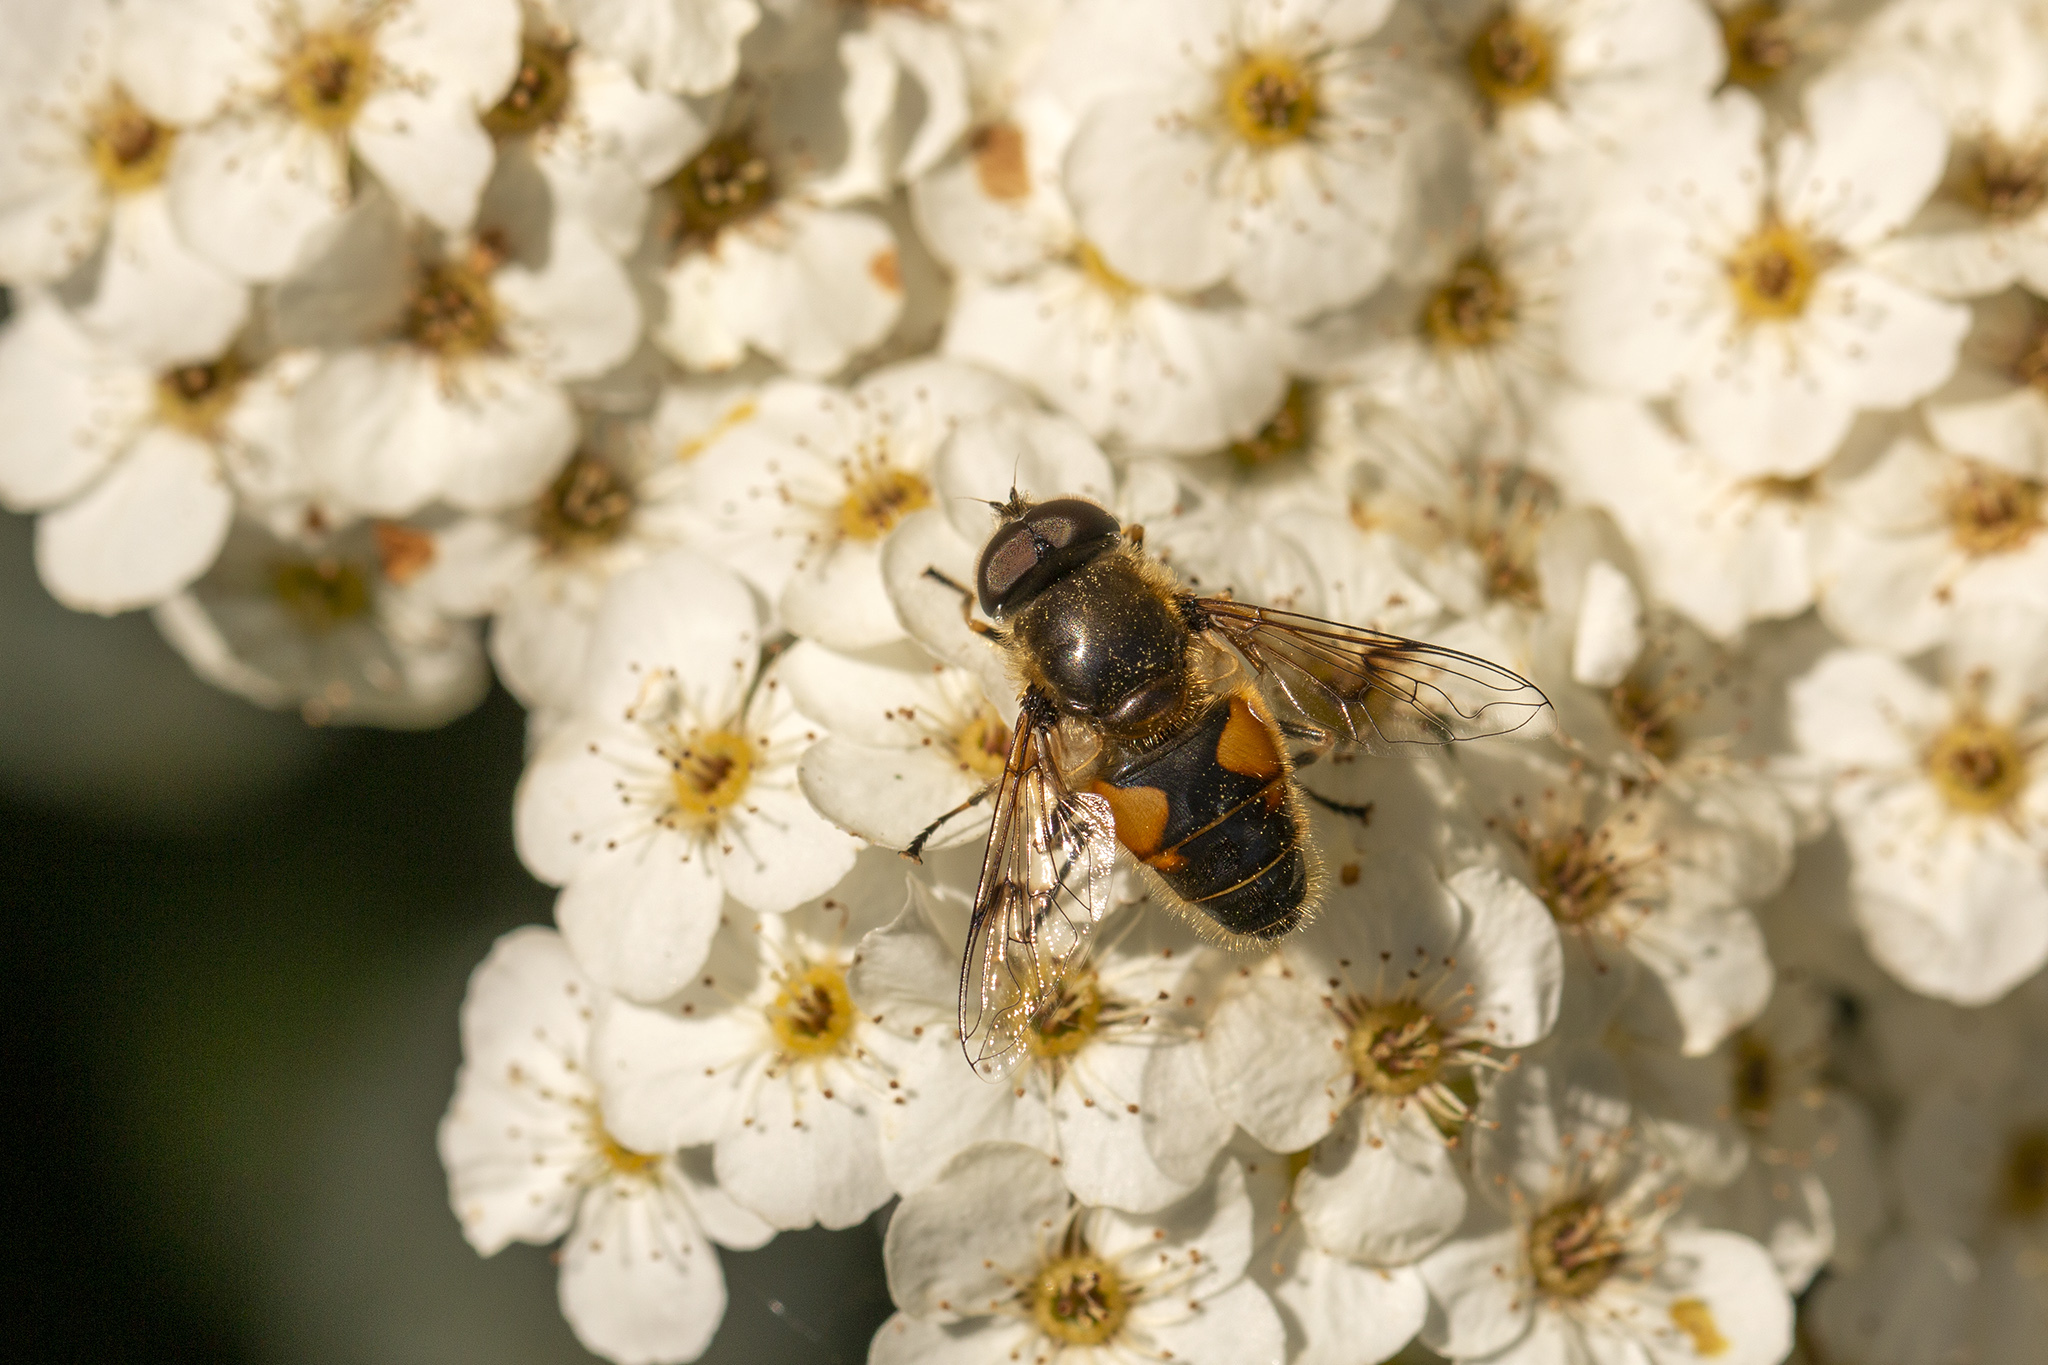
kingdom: Animalia
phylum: Arthropoda
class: Insecta
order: Diptera
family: Syrphidae
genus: Cheilosia
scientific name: Cheilosia morio
